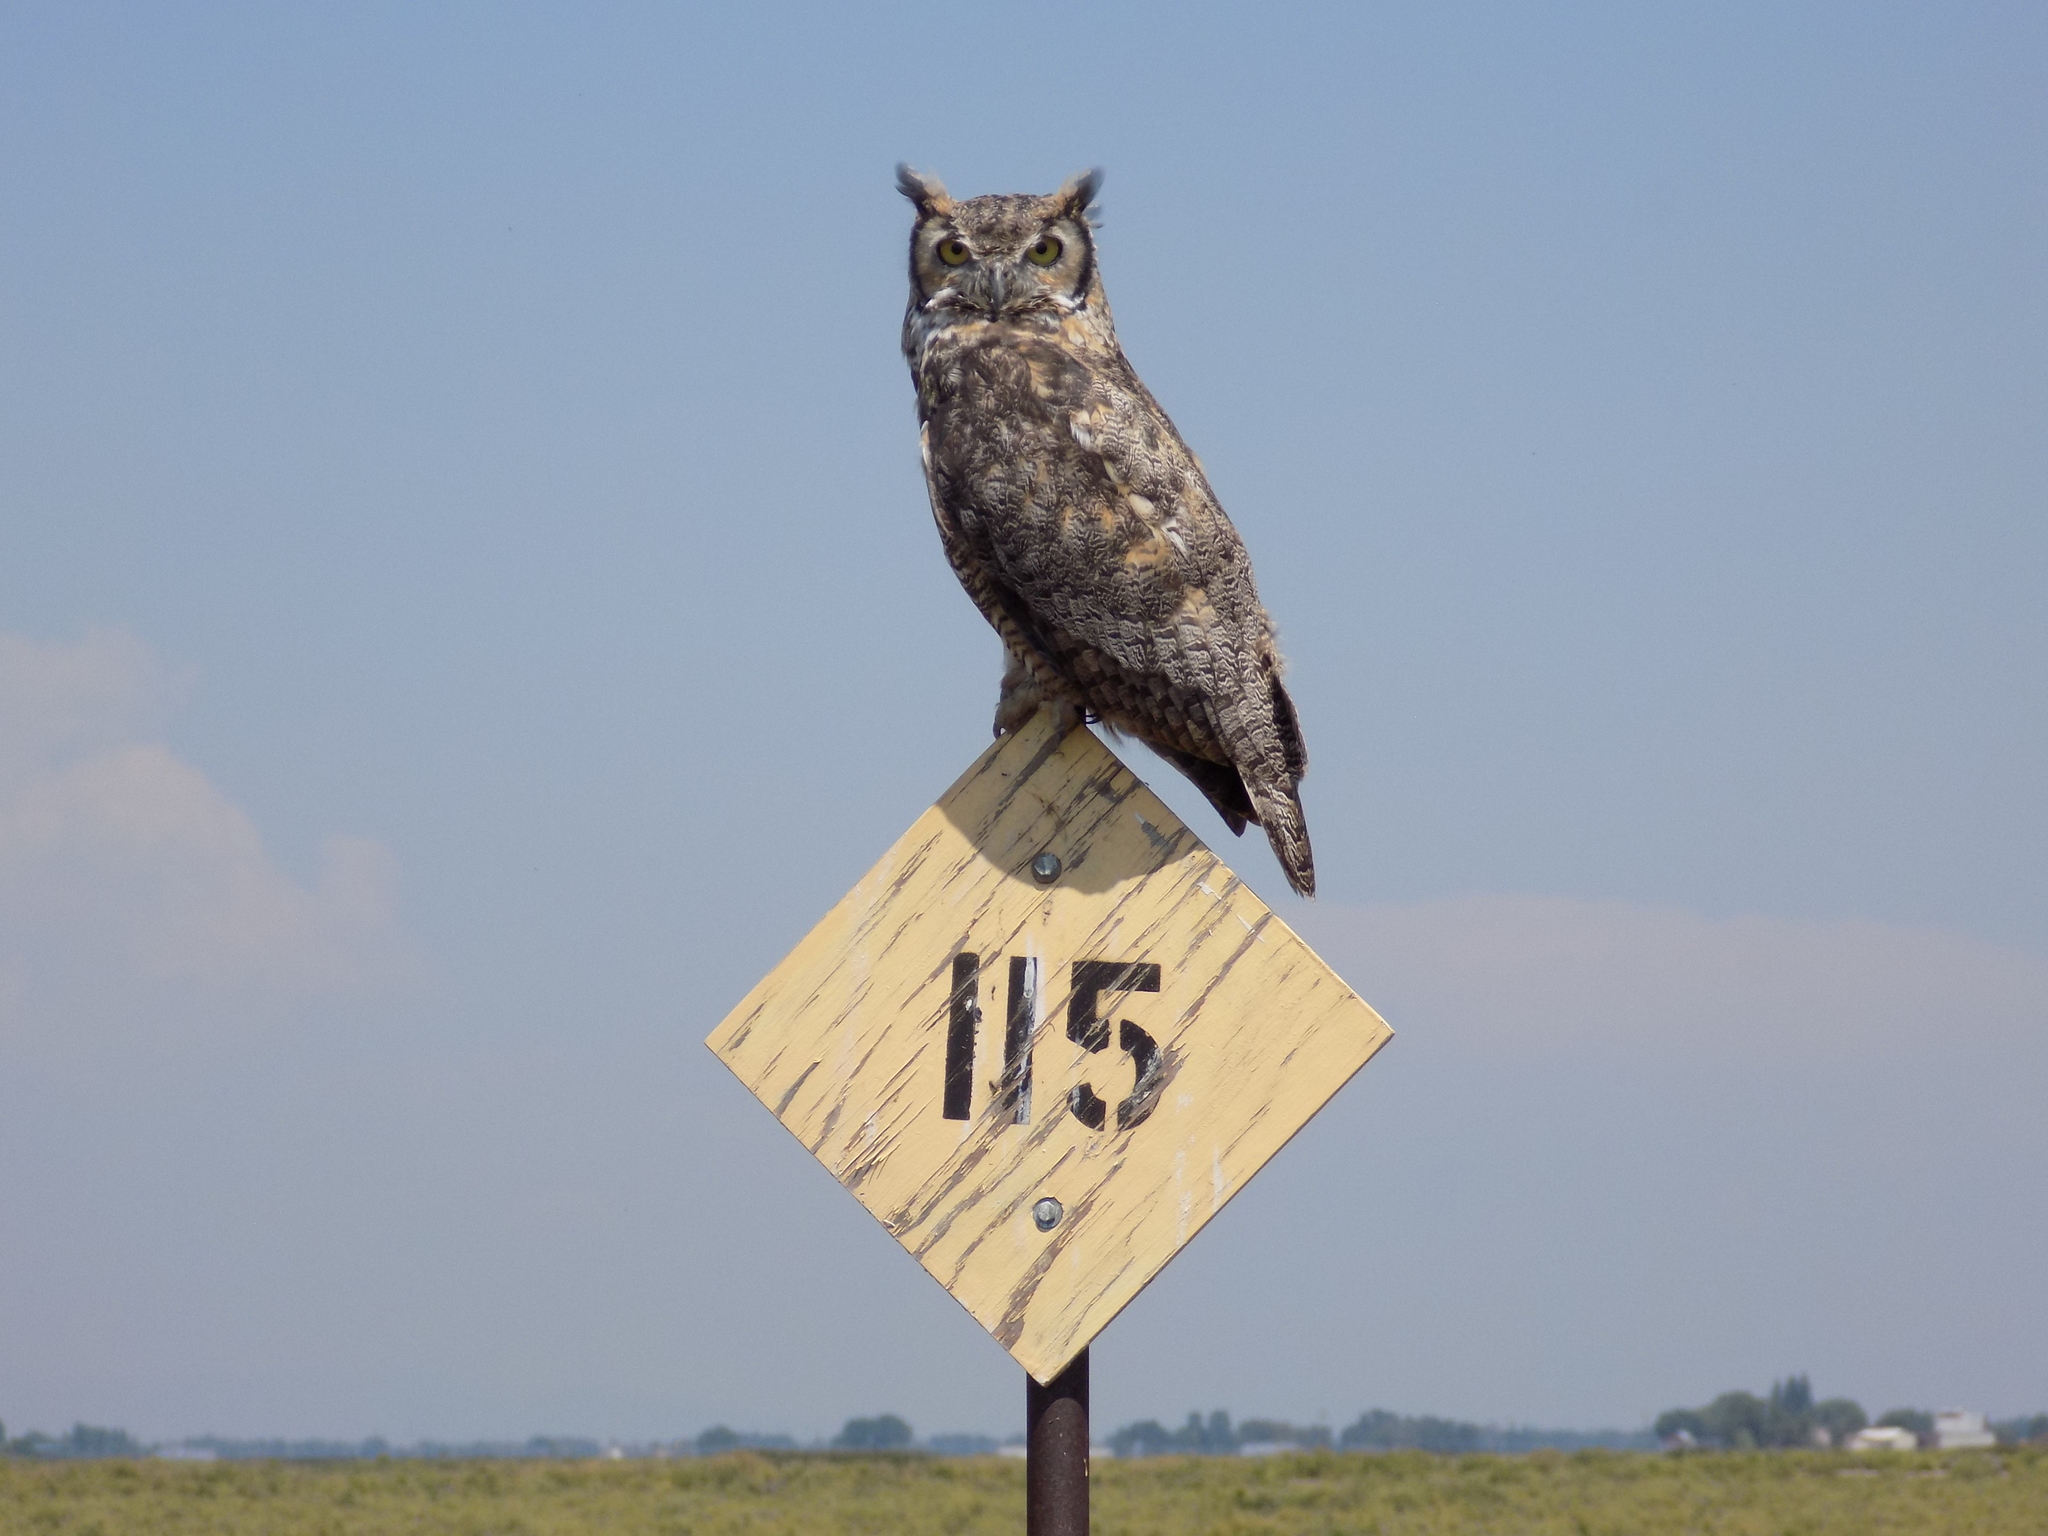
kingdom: Animalia
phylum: Chordata
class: Aves
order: Strigiformes
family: Strigidae
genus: Bubo
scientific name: Bubo virginianus
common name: Great horned owl
